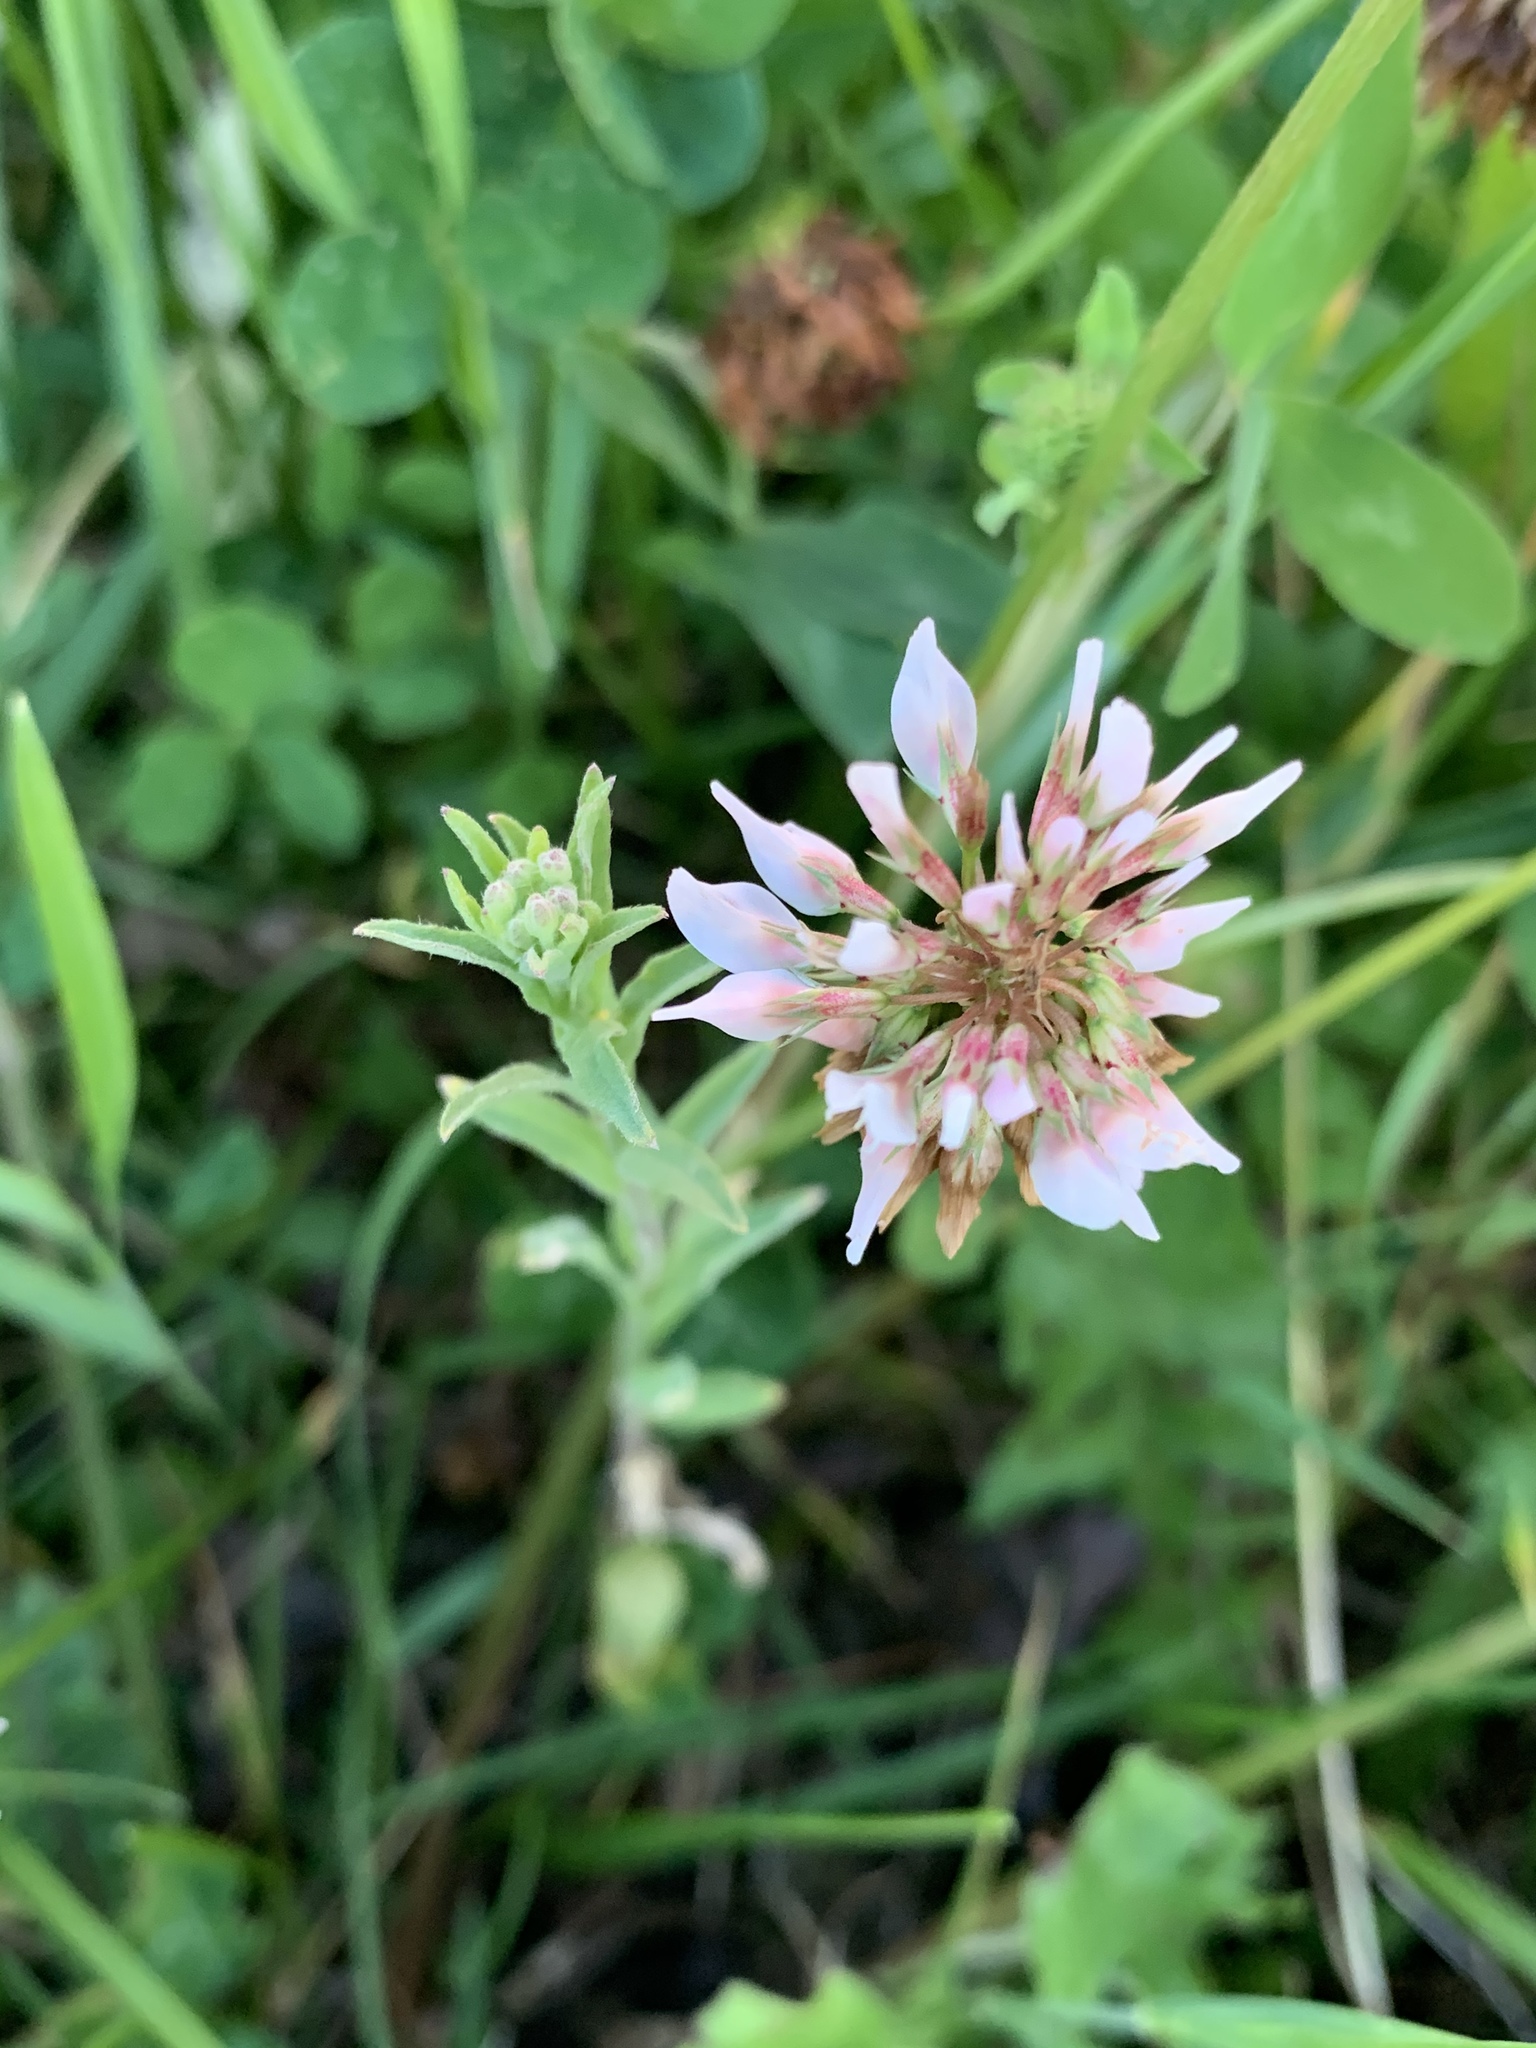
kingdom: Plantae
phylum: Tracheophyta
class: Magnoliopsida
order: Fabales
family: Fabaceae
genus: Trifolium
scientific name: Trifolium repens
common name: White clover
